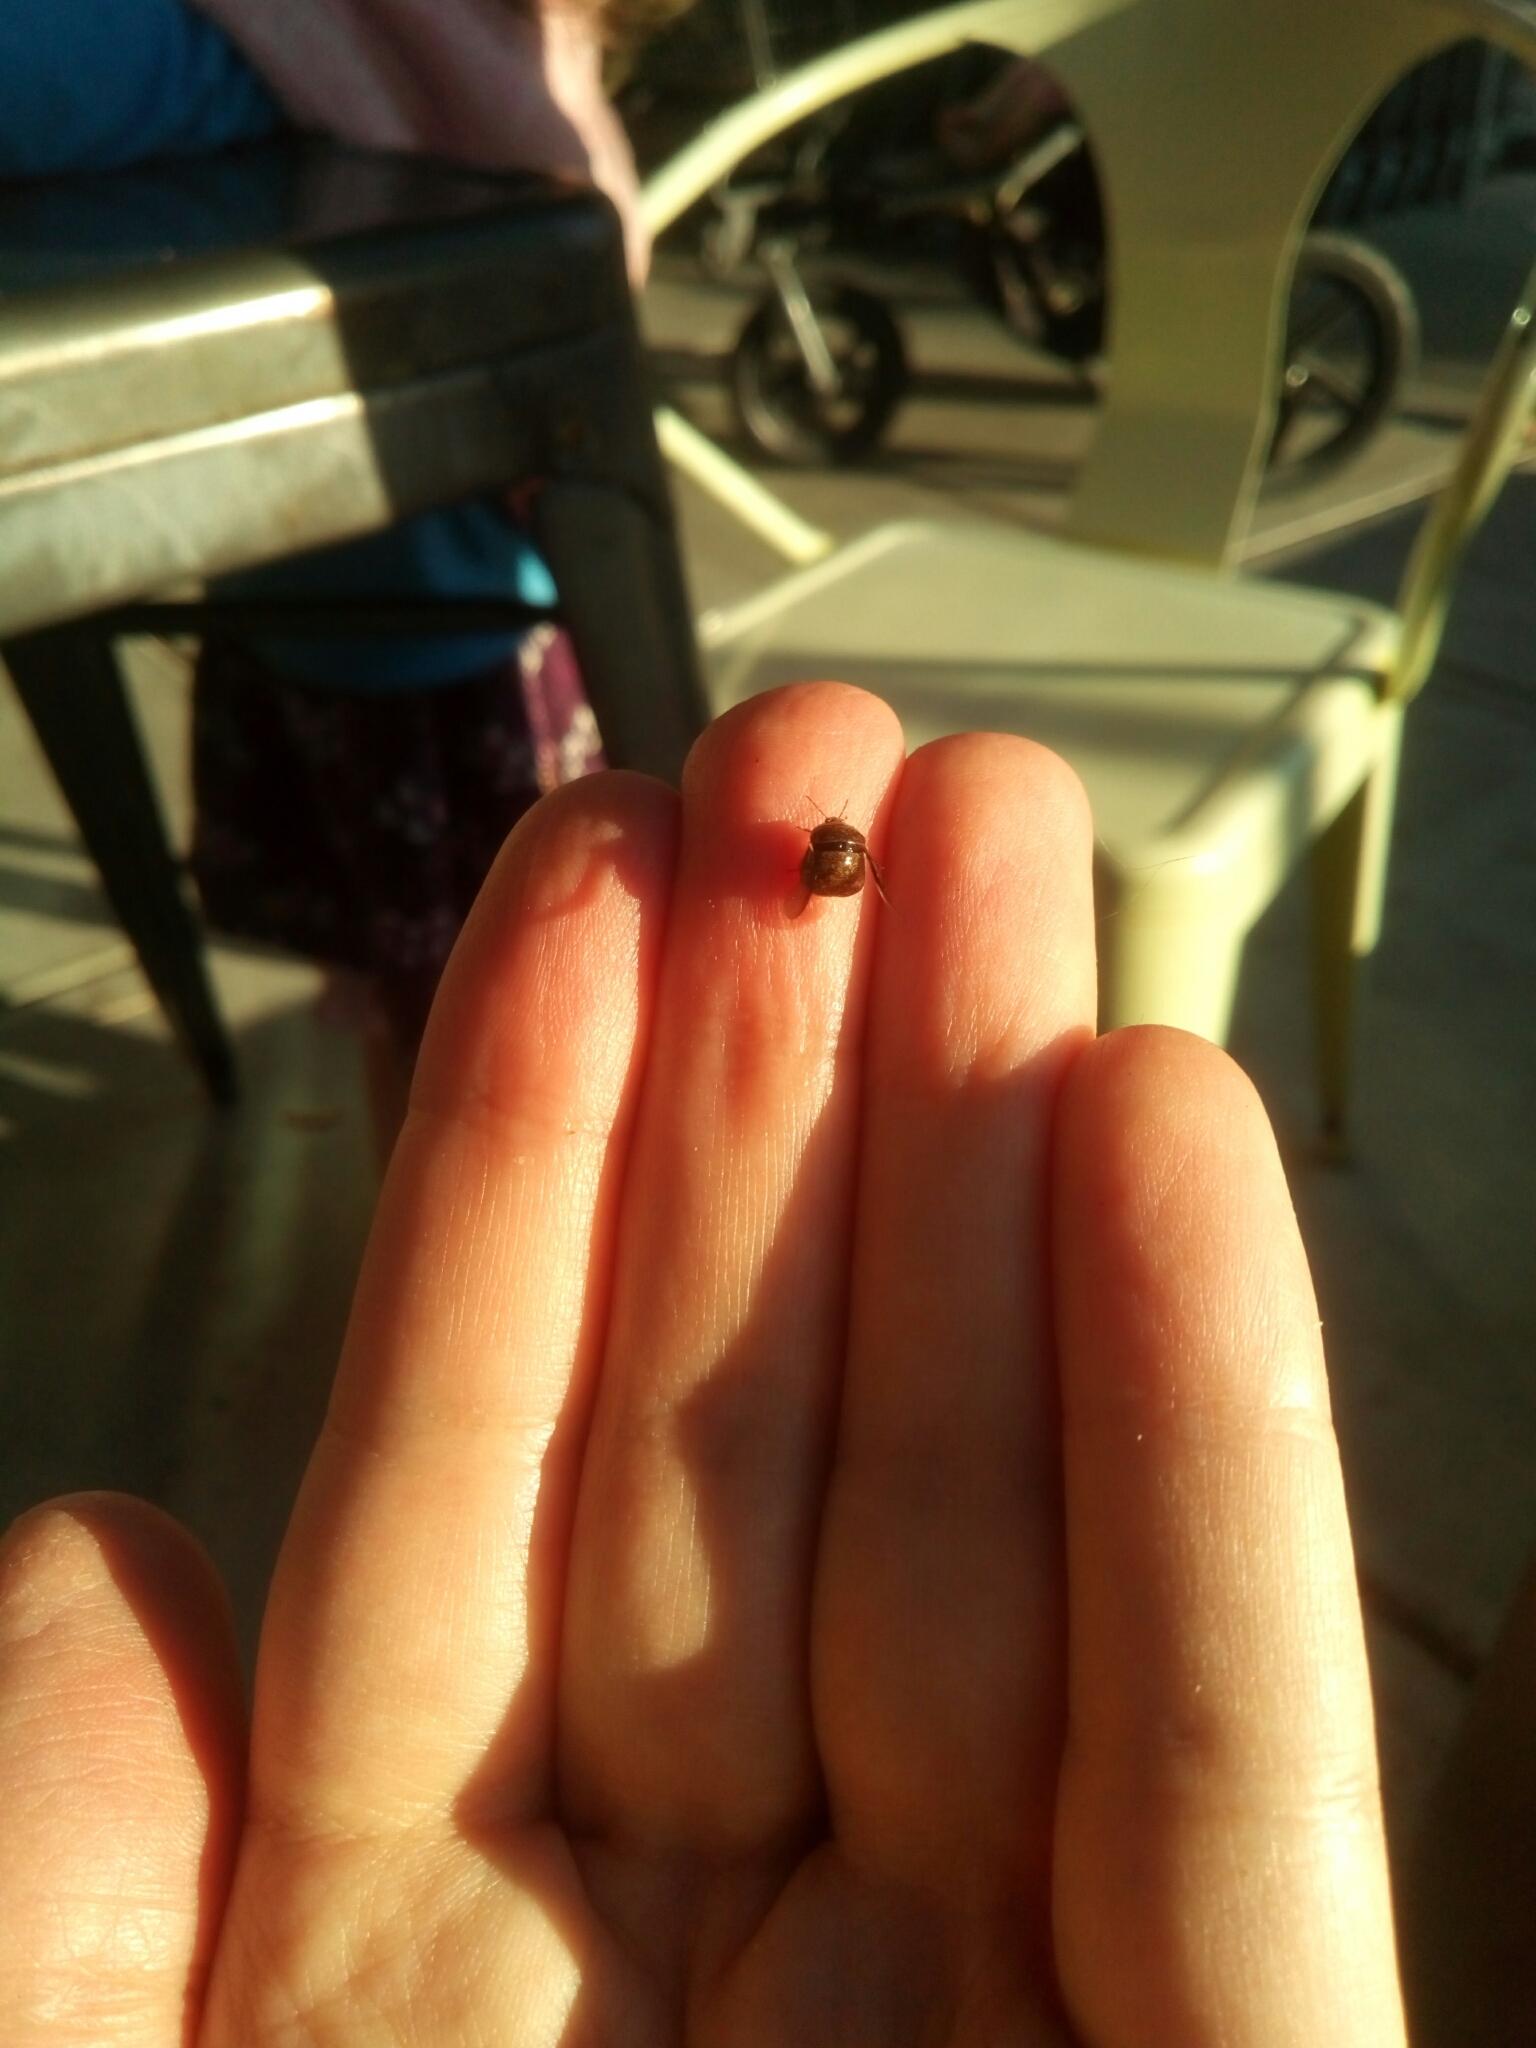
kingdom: Animalia
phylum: Arthropoda
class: Insecta
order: Hemiptera
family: Plataspidae
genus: Megacopta
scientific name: Megacopta cribraria
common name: Bean plataspid
